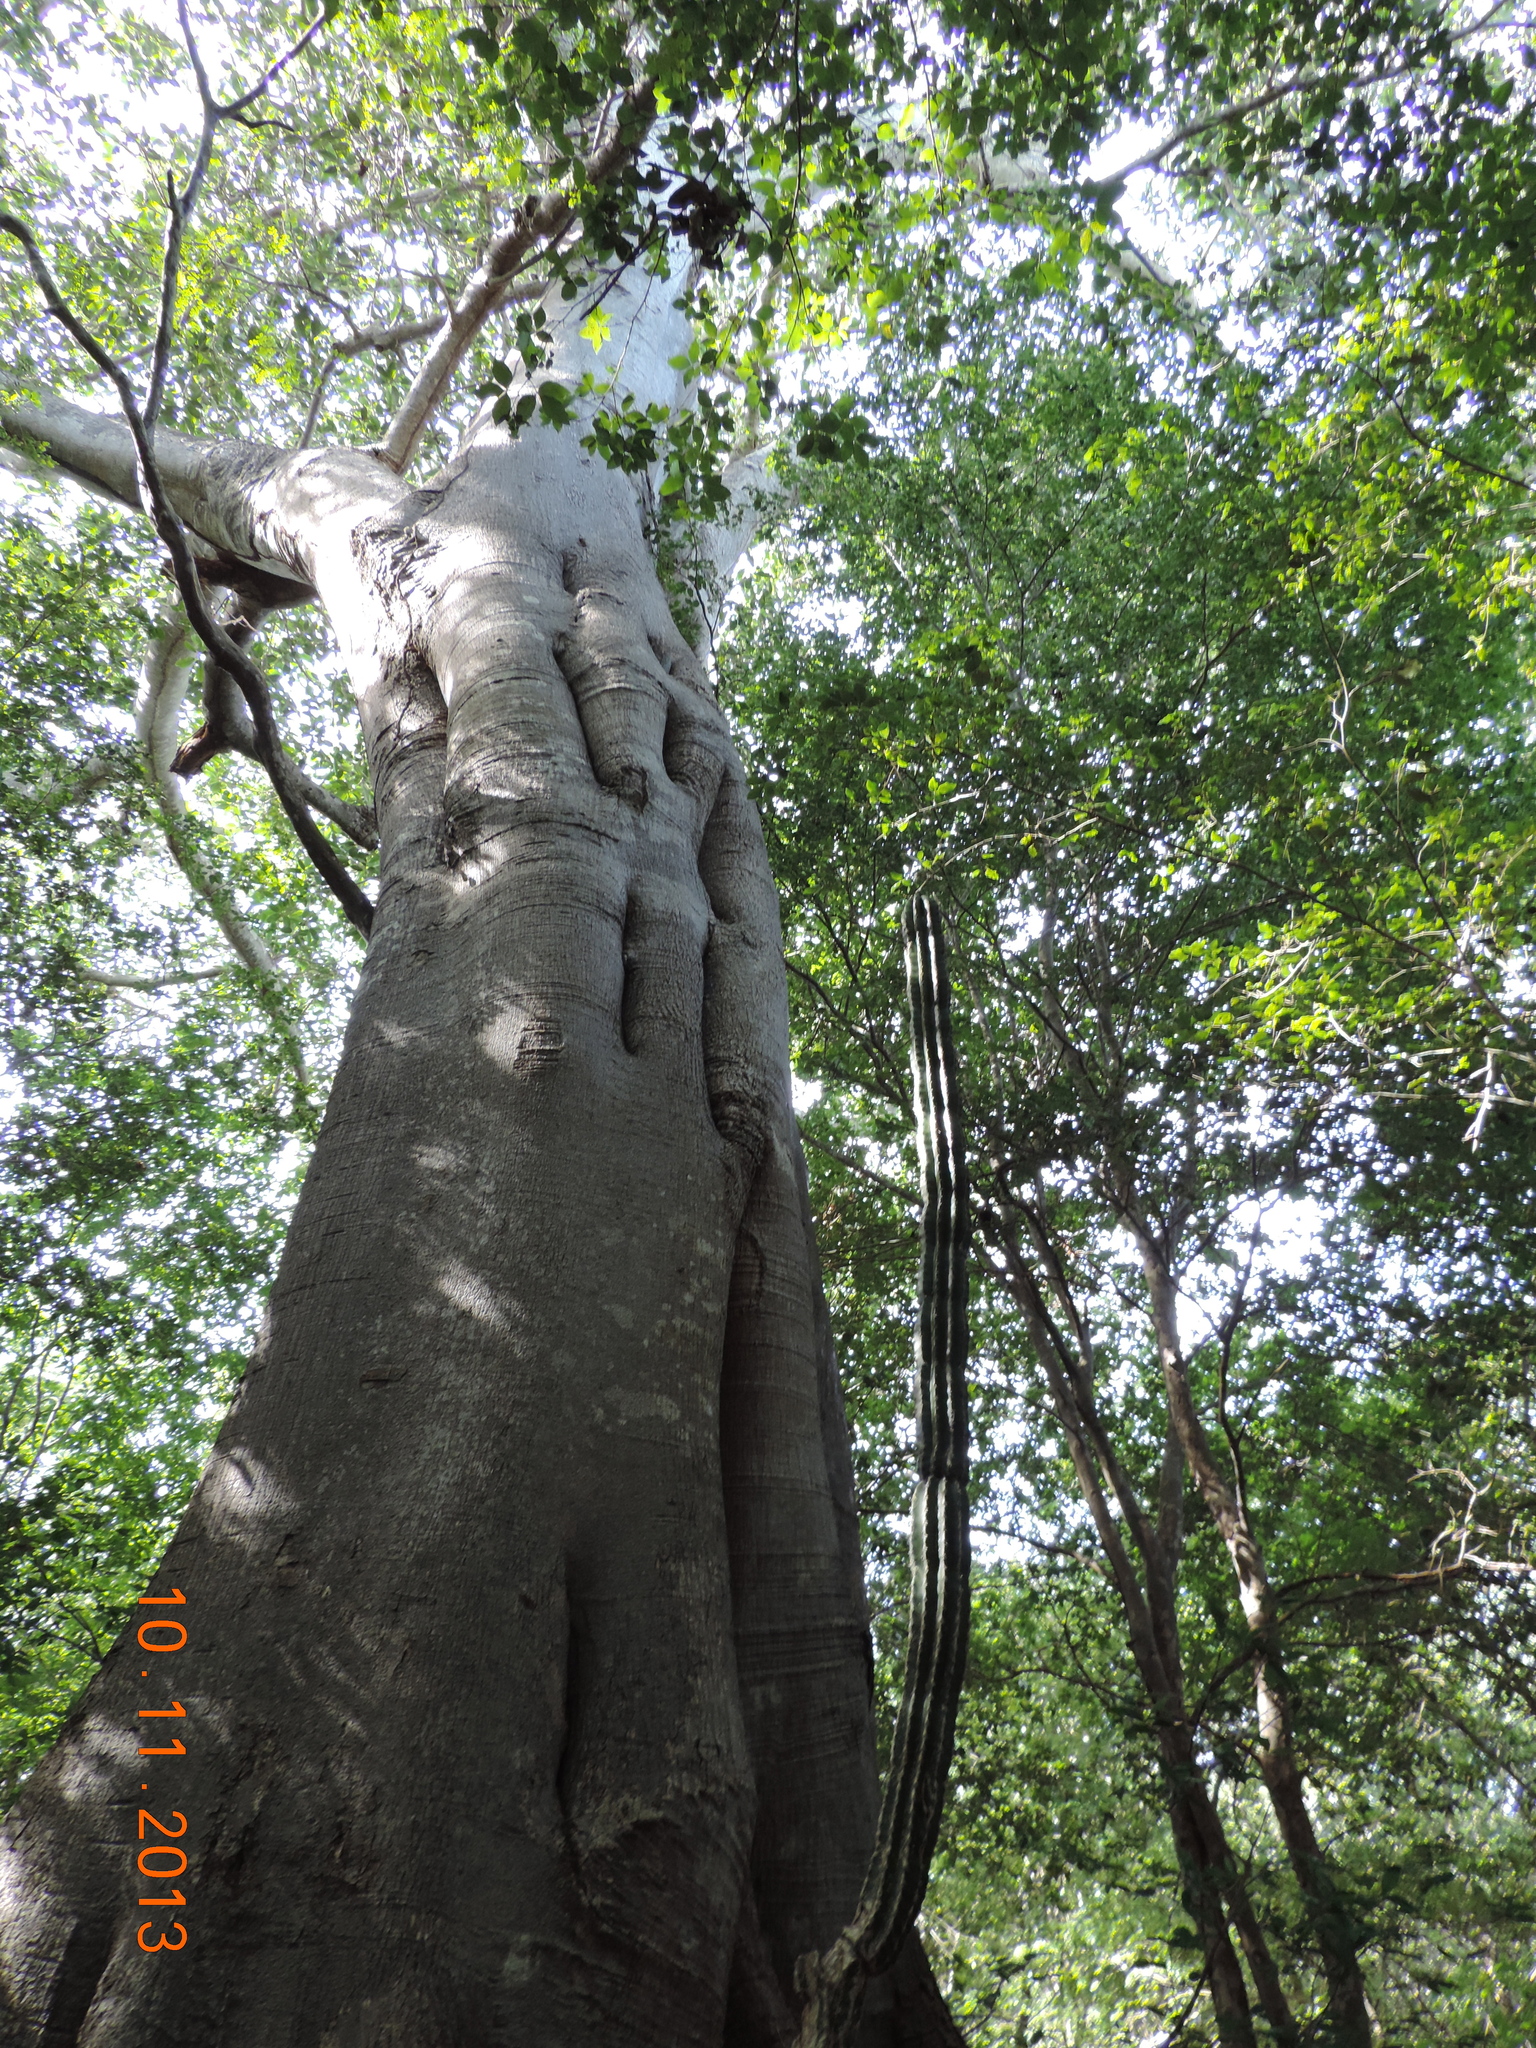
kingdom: Plantae
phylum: Tracheophyta
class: Magnoliopsida
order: Rosales
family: Moraceae
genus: Ficus
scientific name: Ficus crocata
